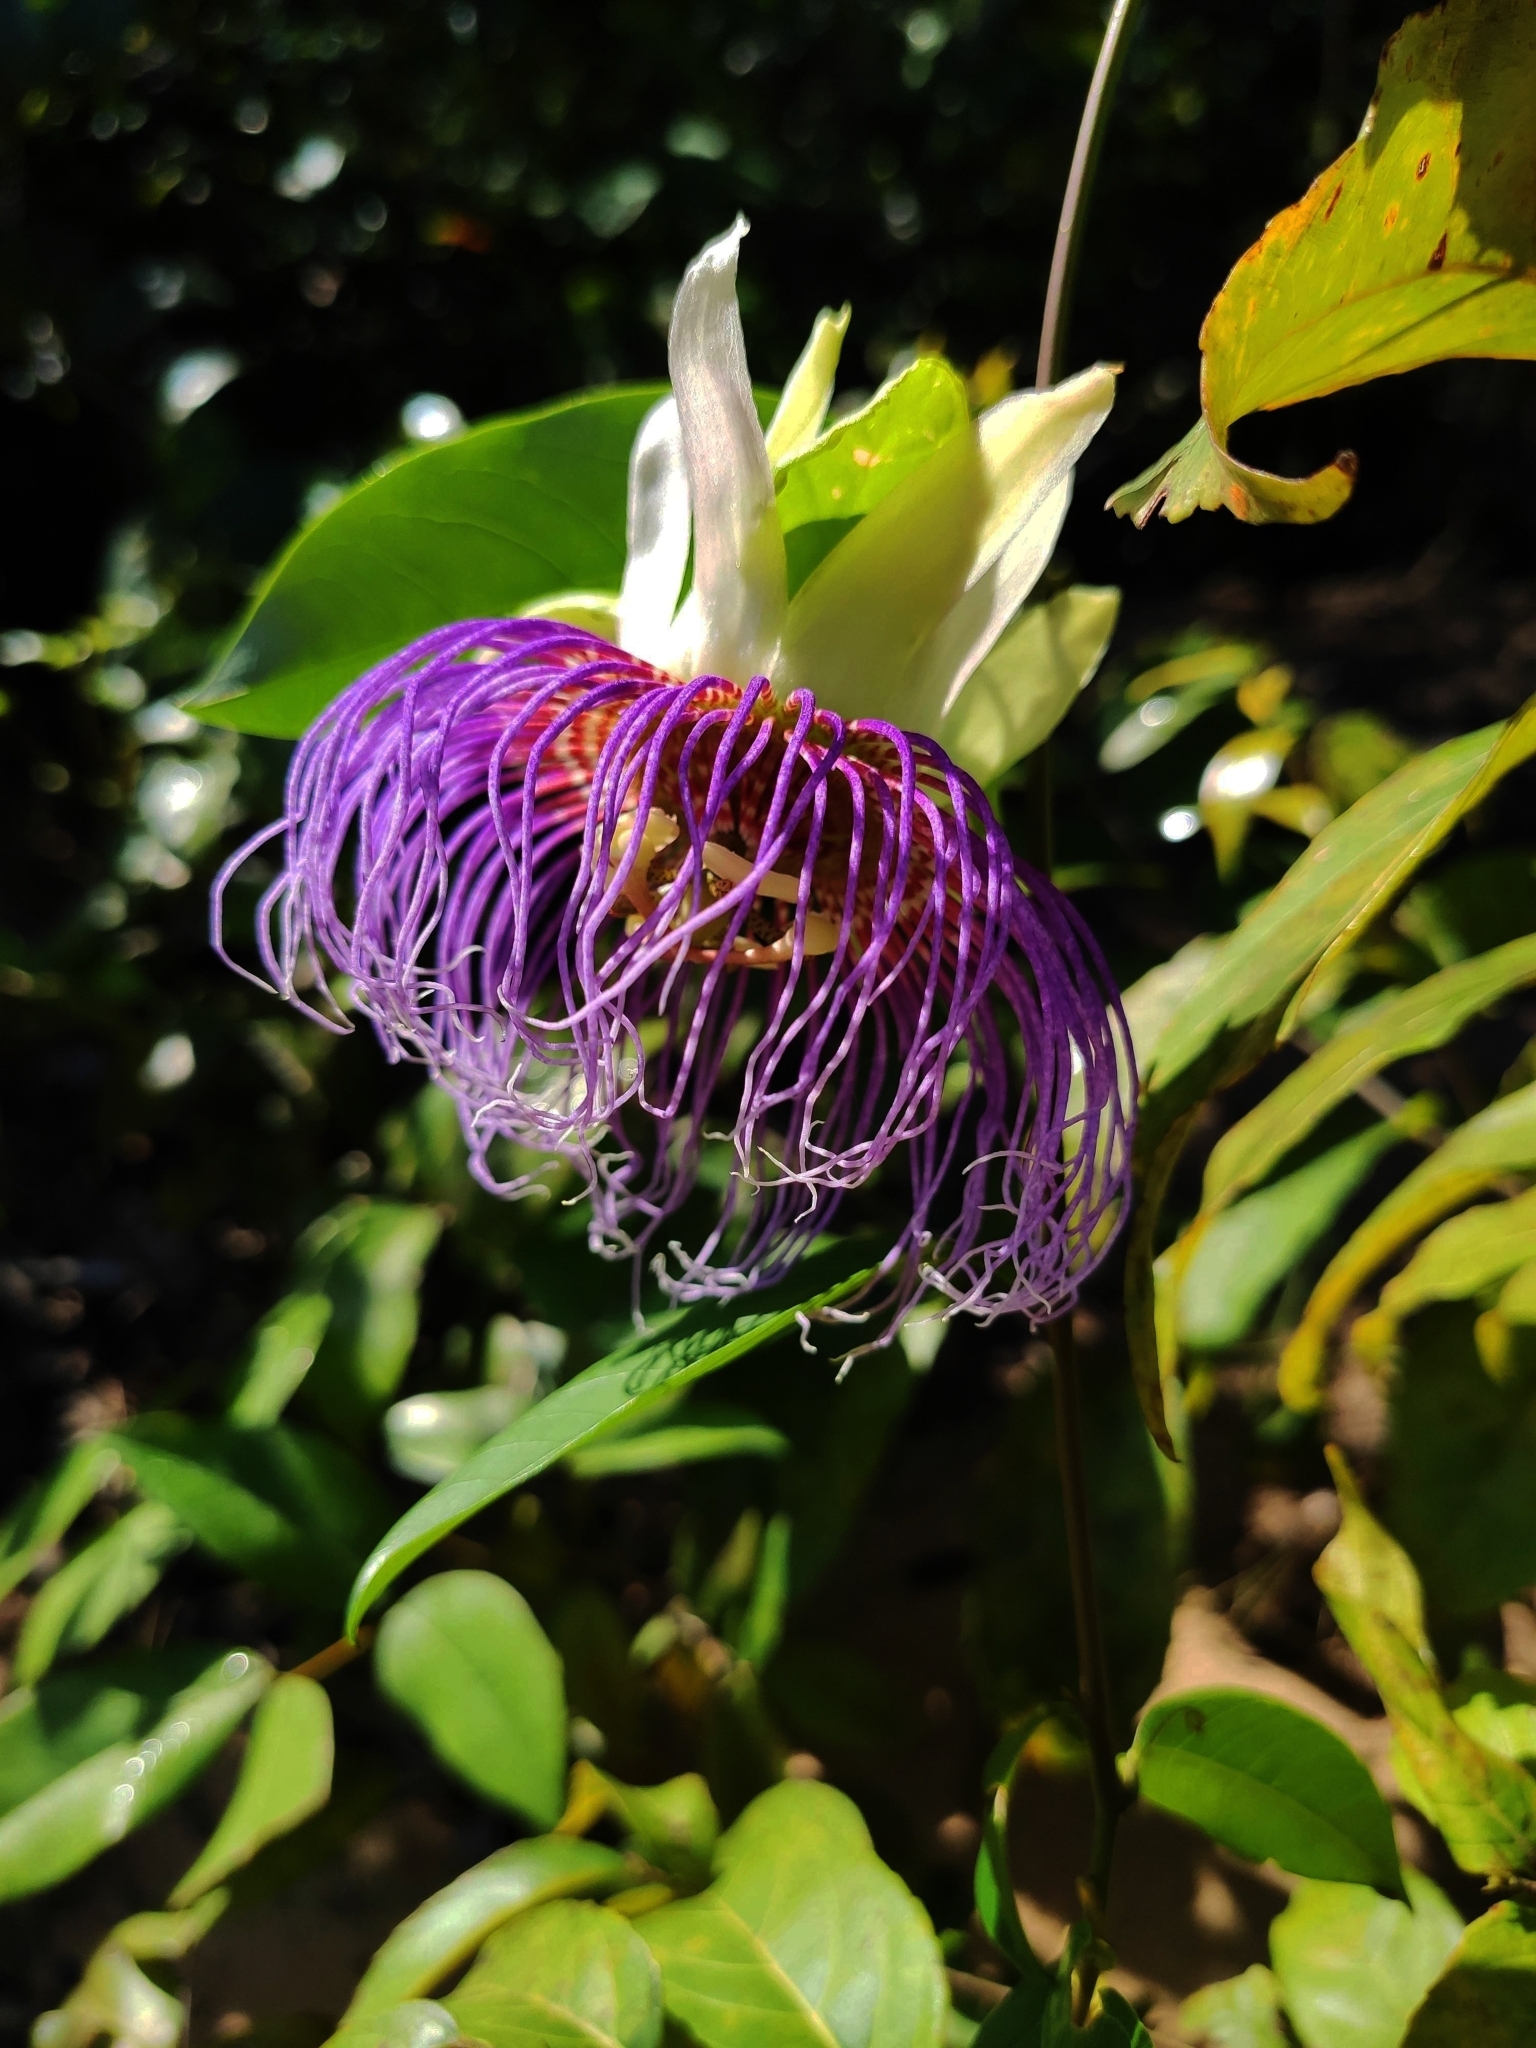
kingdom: Plantae
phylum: Tracheophyta
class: Magnoliopsida
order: Malpighiales
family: Passifloraceae
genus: Passiflora
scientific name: Passiflora acuminata
